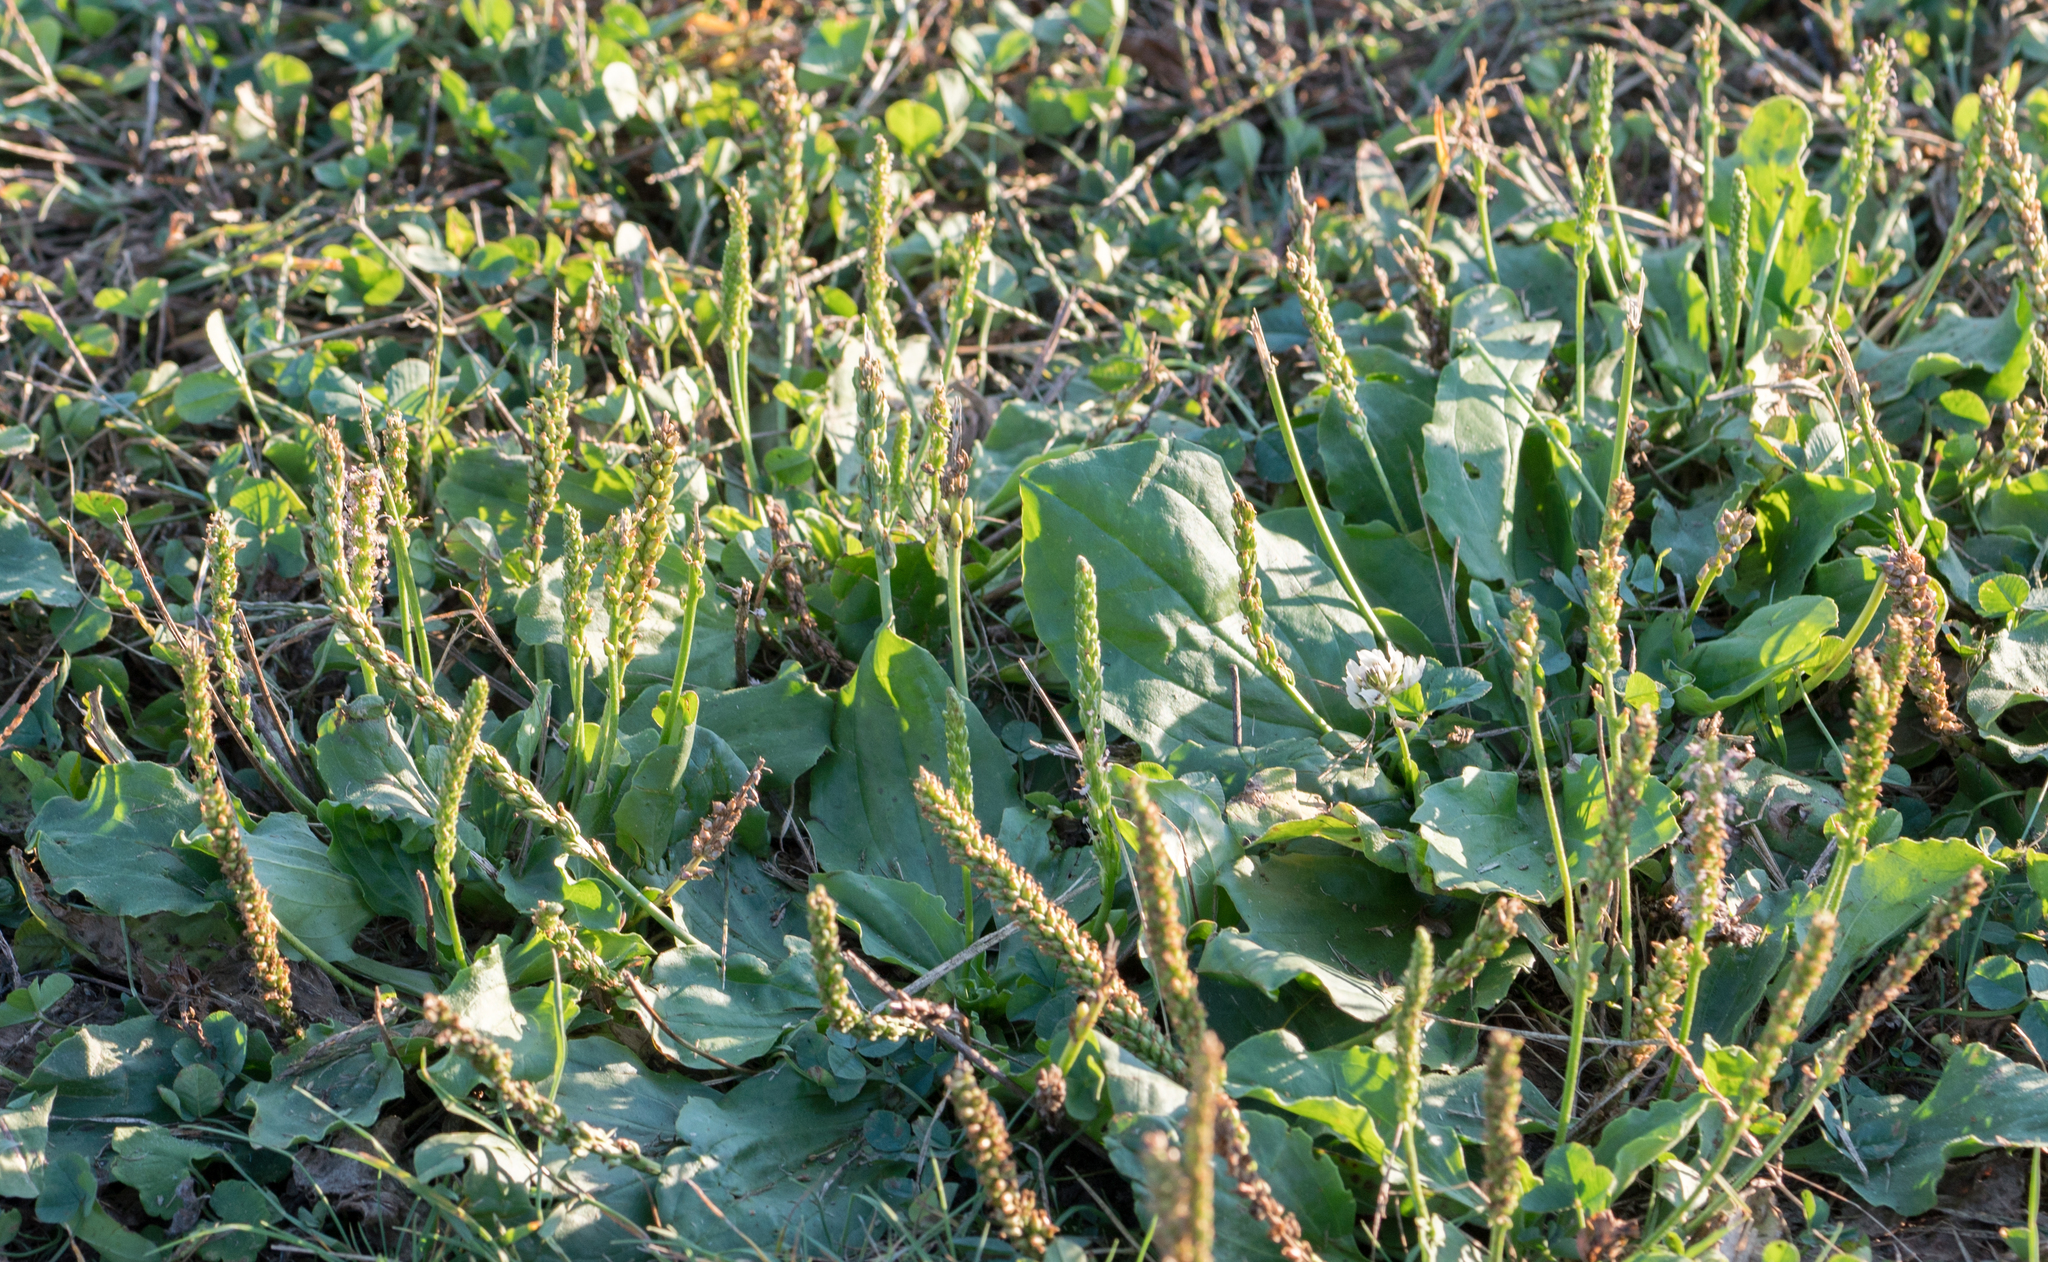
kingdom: Plantae
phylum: Tracheophyta
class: Magnoliopsida
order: Lamiales
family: Plantaginaceae
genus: Plantago
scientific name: Plantago major
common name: Common plantain
